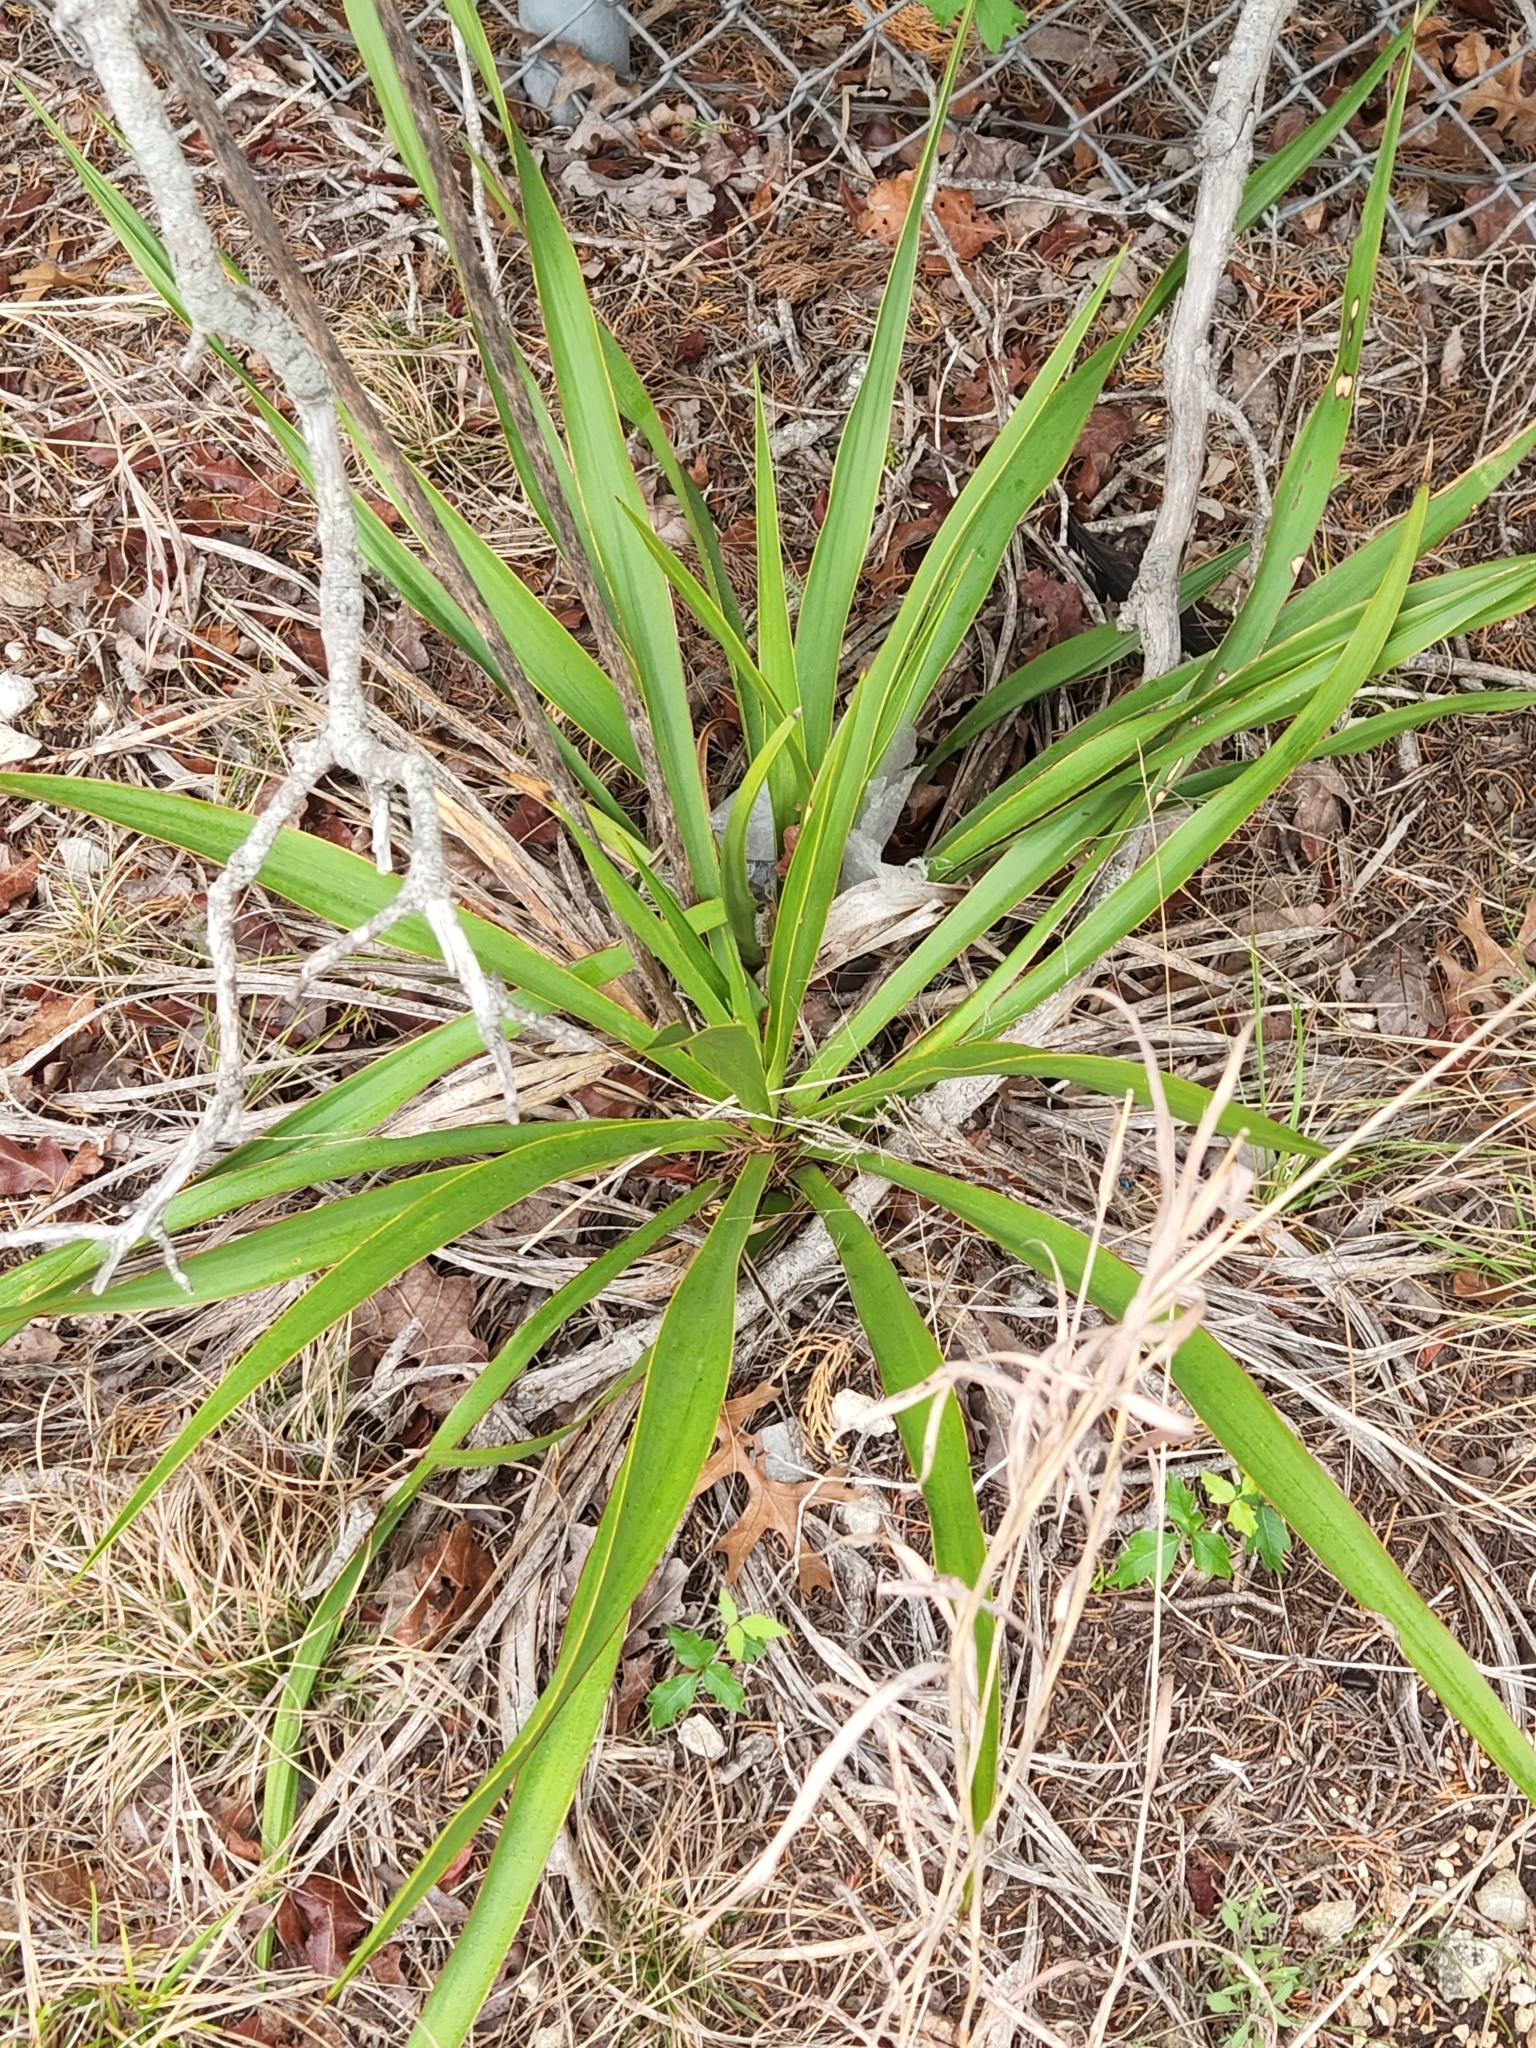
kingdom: Plantae
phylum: Tracheophyta
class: Liliopsida
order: Asparagales
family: Asparagaceae
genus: Yucca
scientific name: Yucca rupicola
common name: Twisted-leaf spanish-dagger
